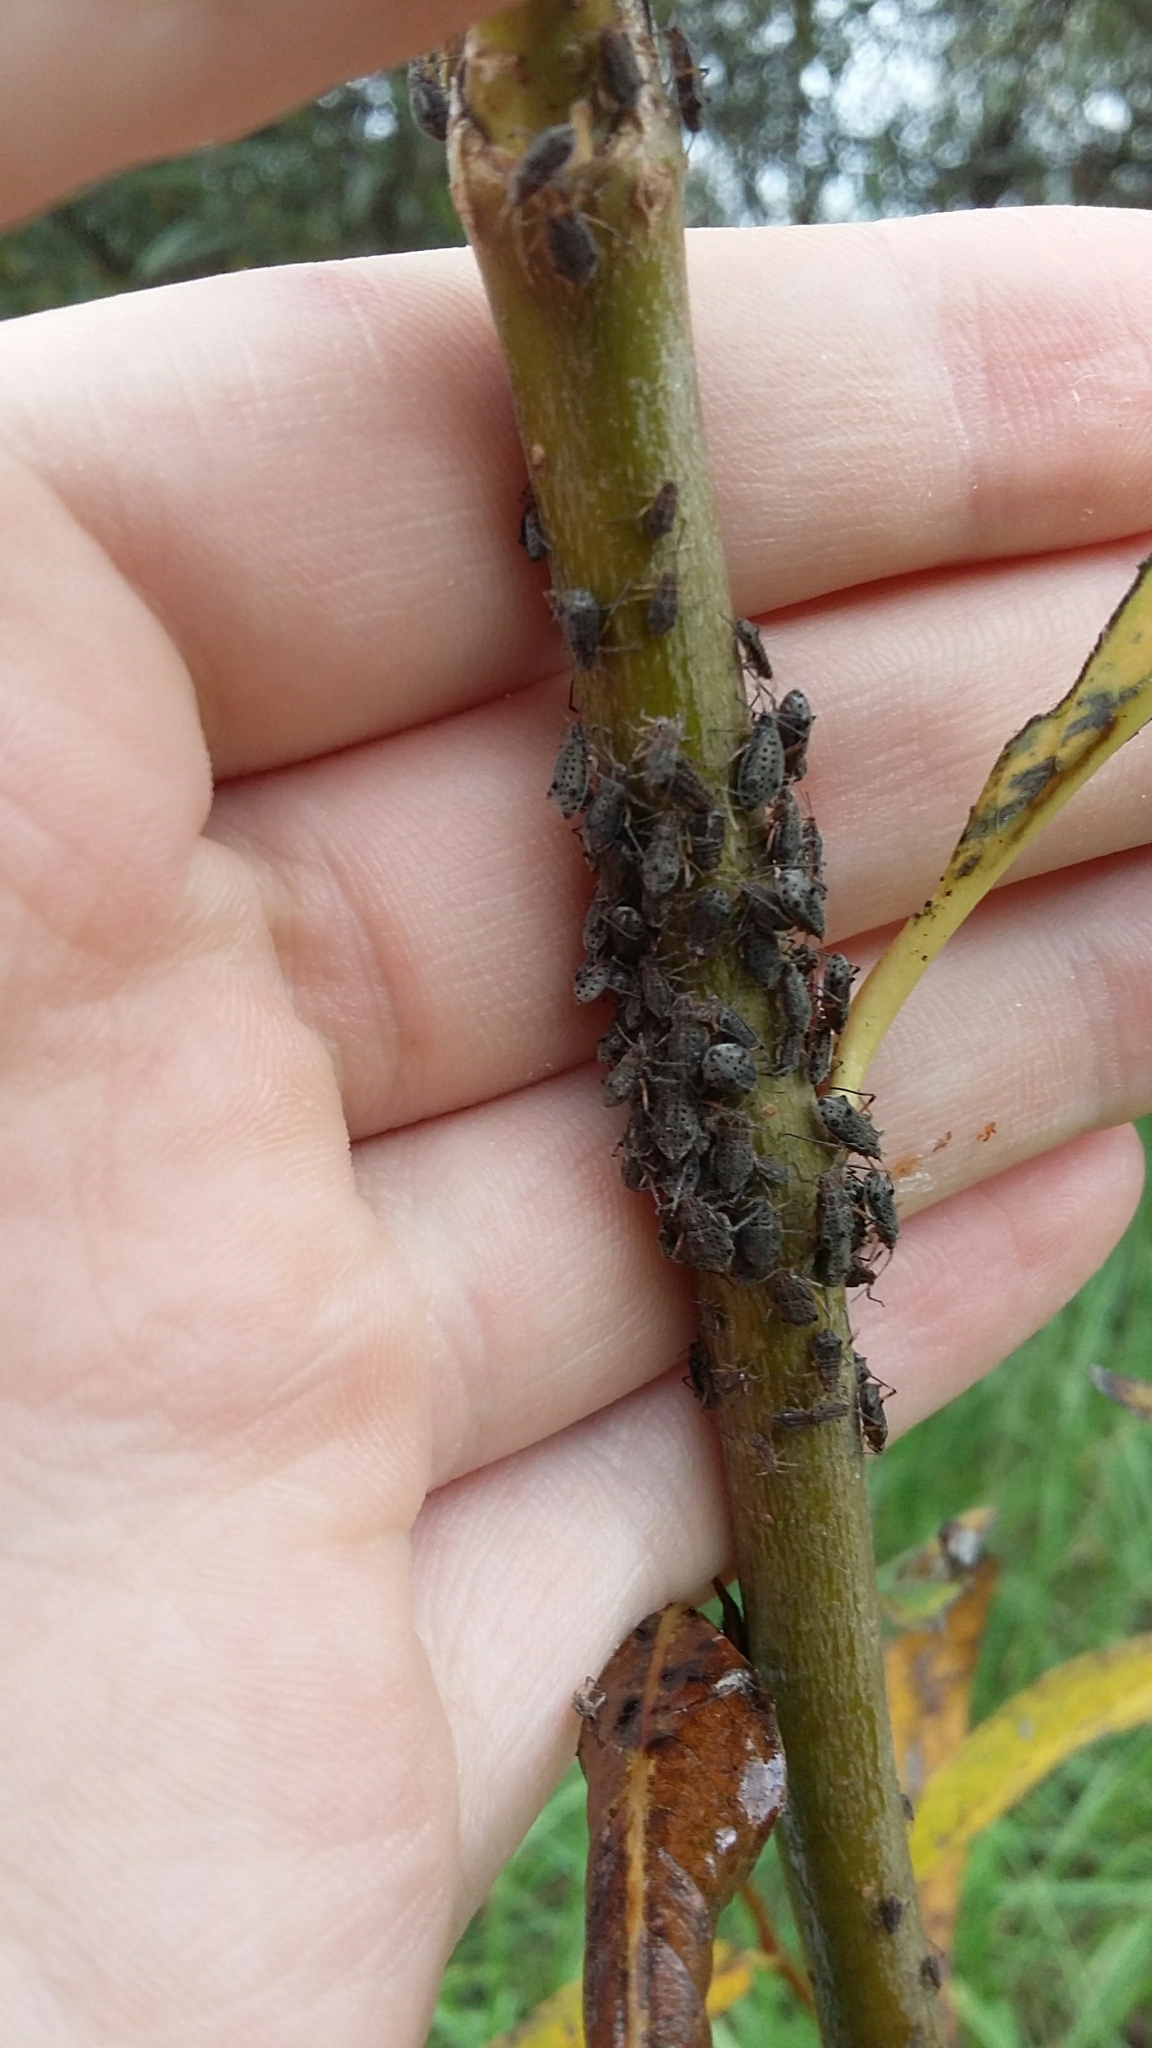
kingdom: Animalia
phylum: Arthropoda
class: Insecta
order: Hemiptera
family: Aphididae
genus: Tuberolachnus
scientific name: Tuberolachnus salignus
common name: Giant willow aphid
